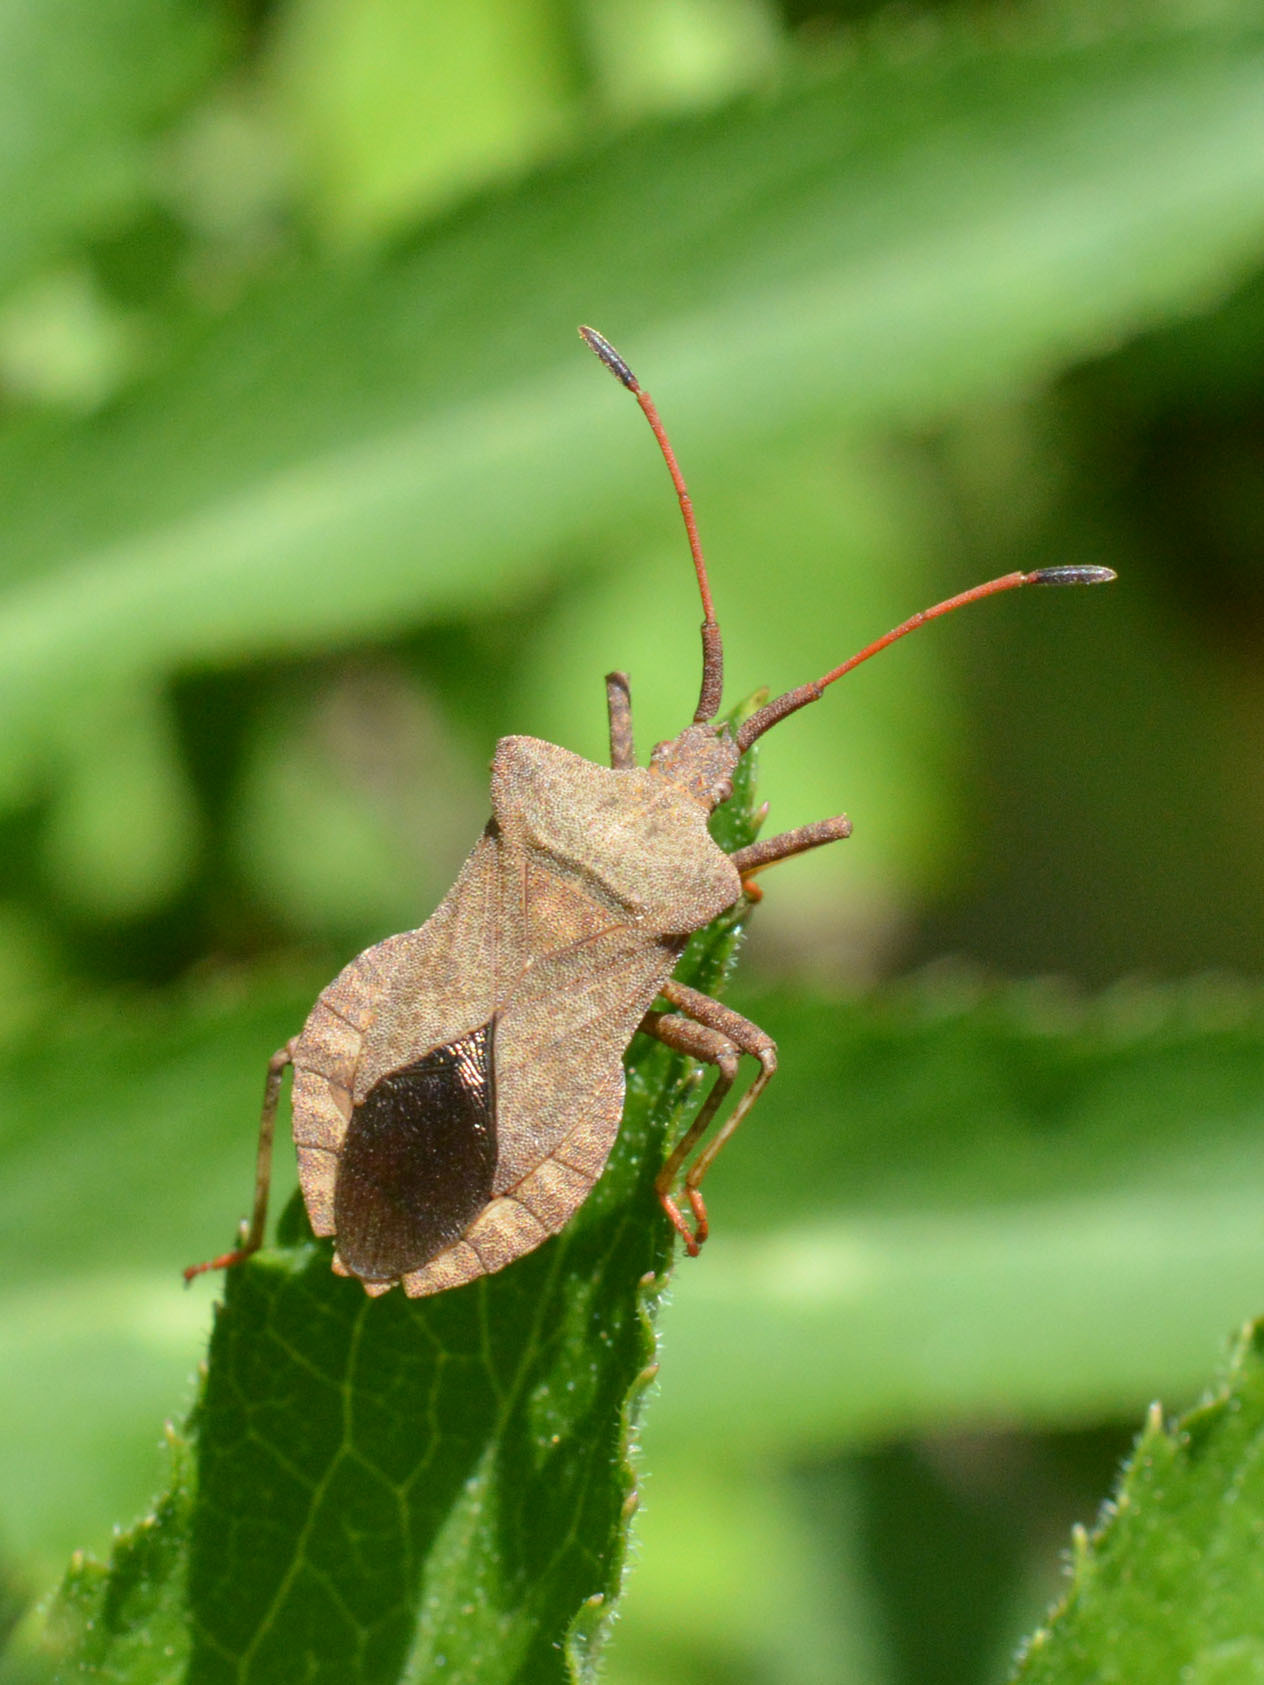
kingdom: Animalia
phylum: Arthropoda
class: Insecta
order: Hemiptera
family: Coreidae
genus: Coreus
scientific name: Coreus marginatus
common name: Dock bug
